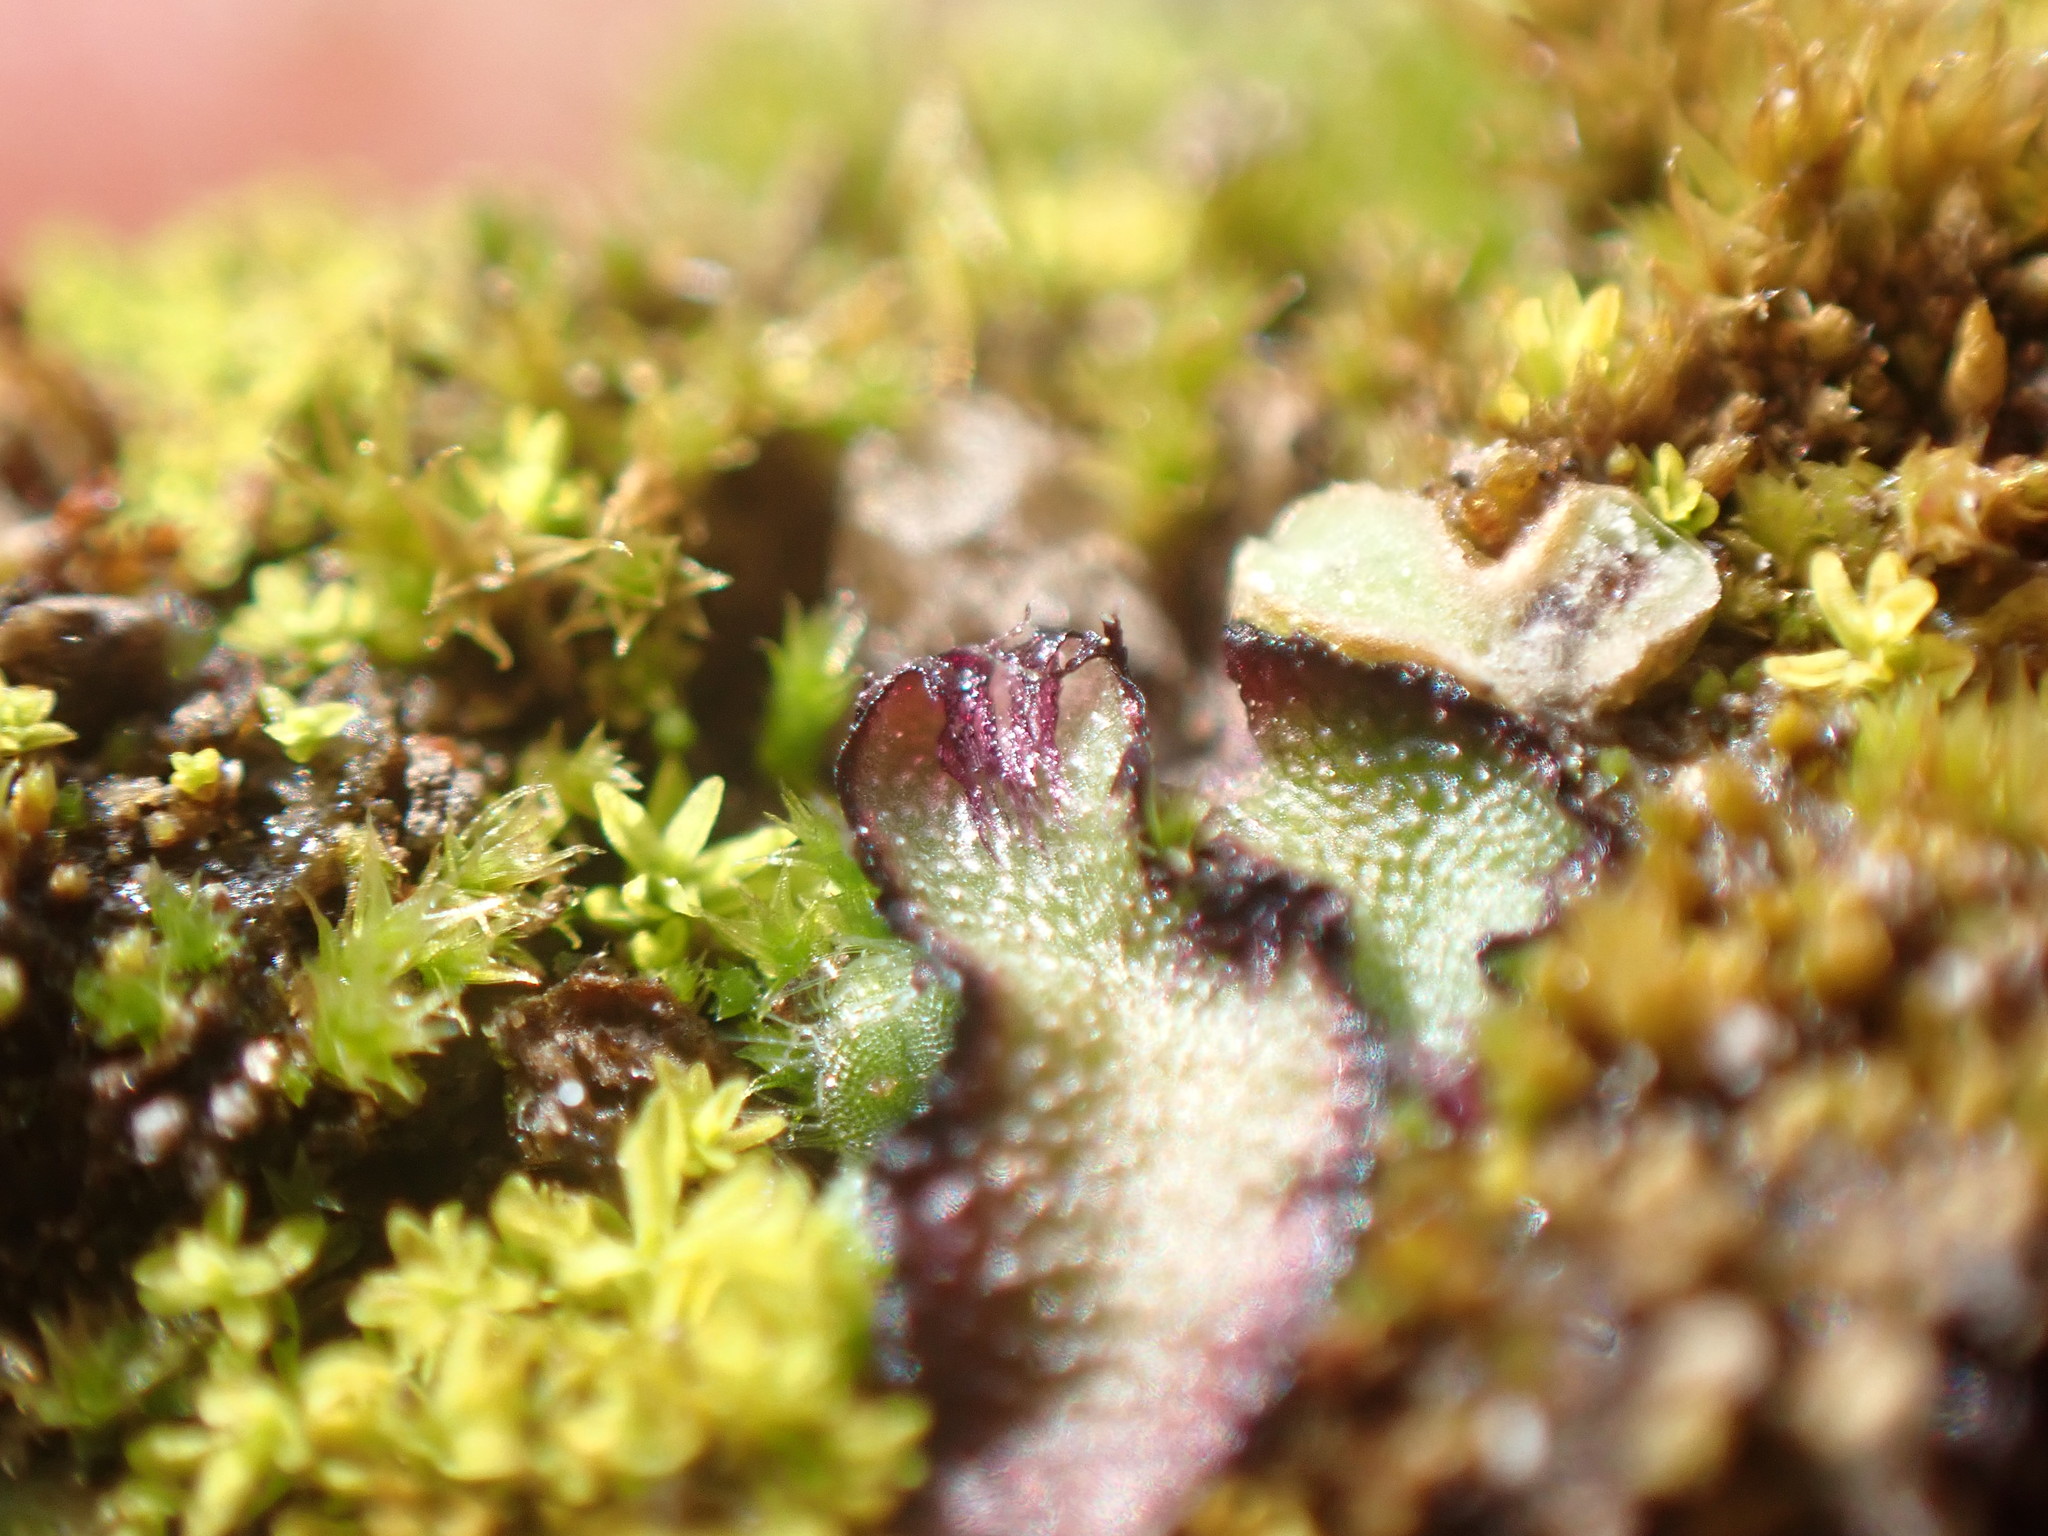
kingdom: Plantae
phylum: Marchantiophyta
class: Marchantiopsida
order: Marchantiales
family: Aytoniaceae
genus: Mannia
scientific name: Mannia fragrans
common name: Fragrant macewort
